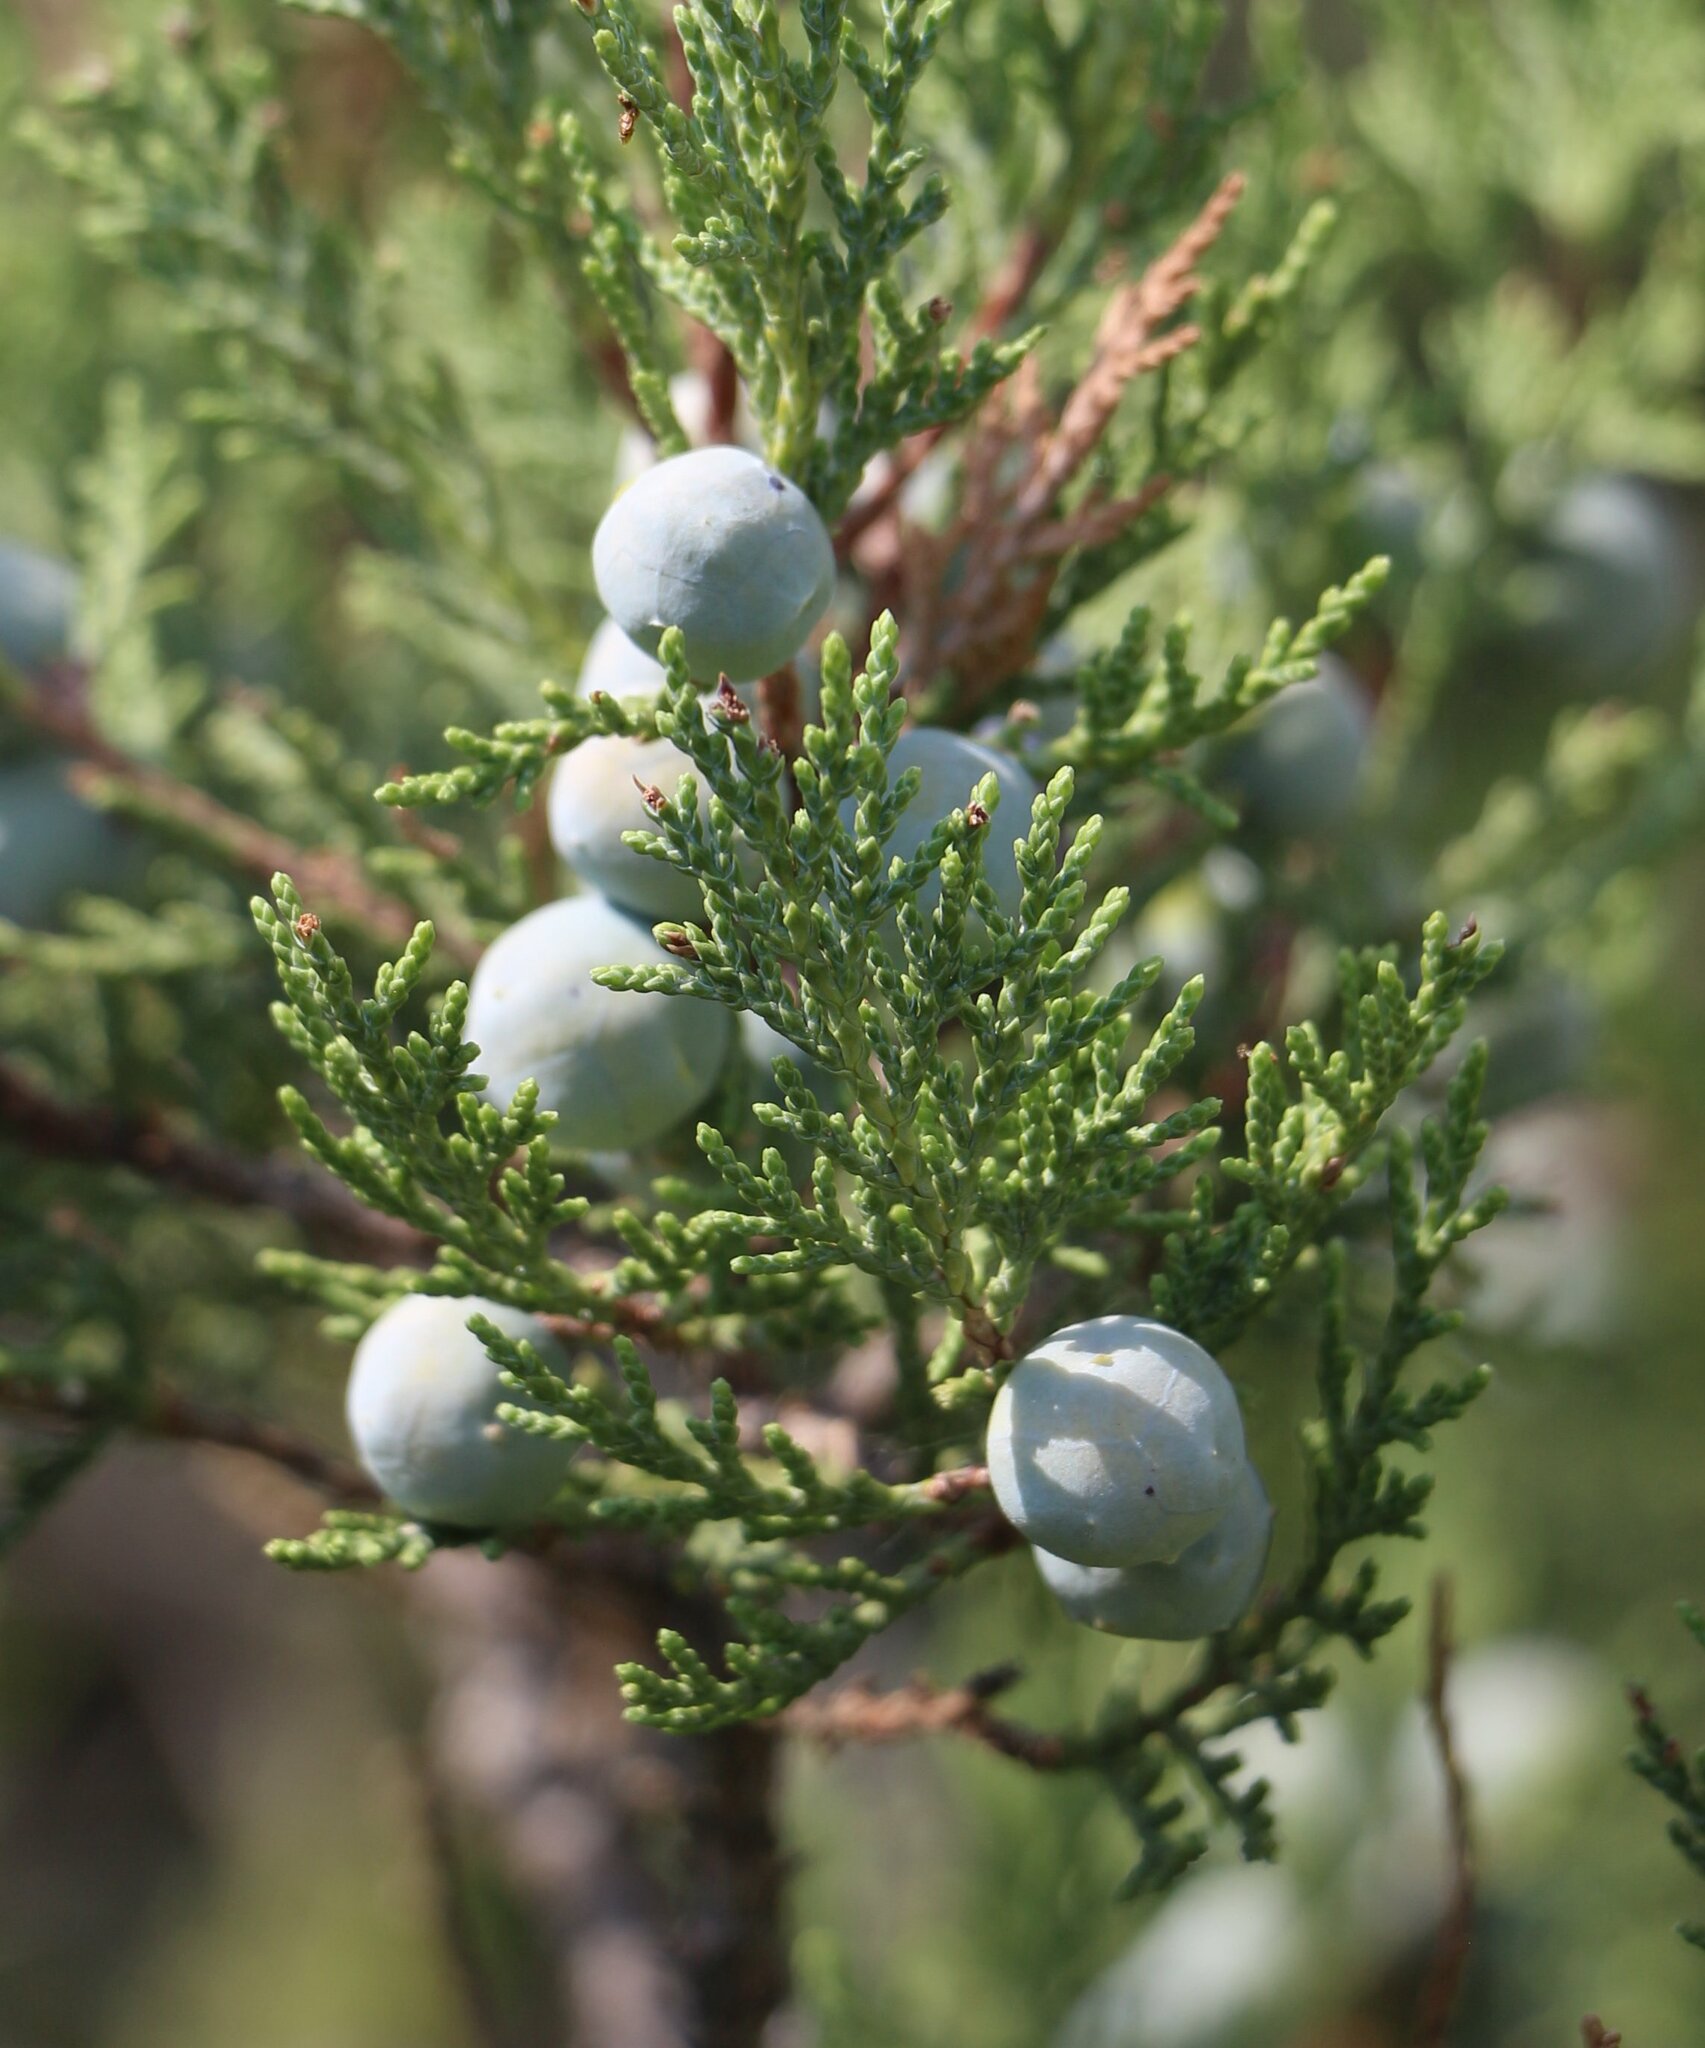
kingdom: Plantae
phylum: Tracheophyta
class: Pinopsida
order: Pinales
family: Cupressaceae
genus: Juniperus
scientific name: Juniperus excelsa
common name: Crimean juniper
